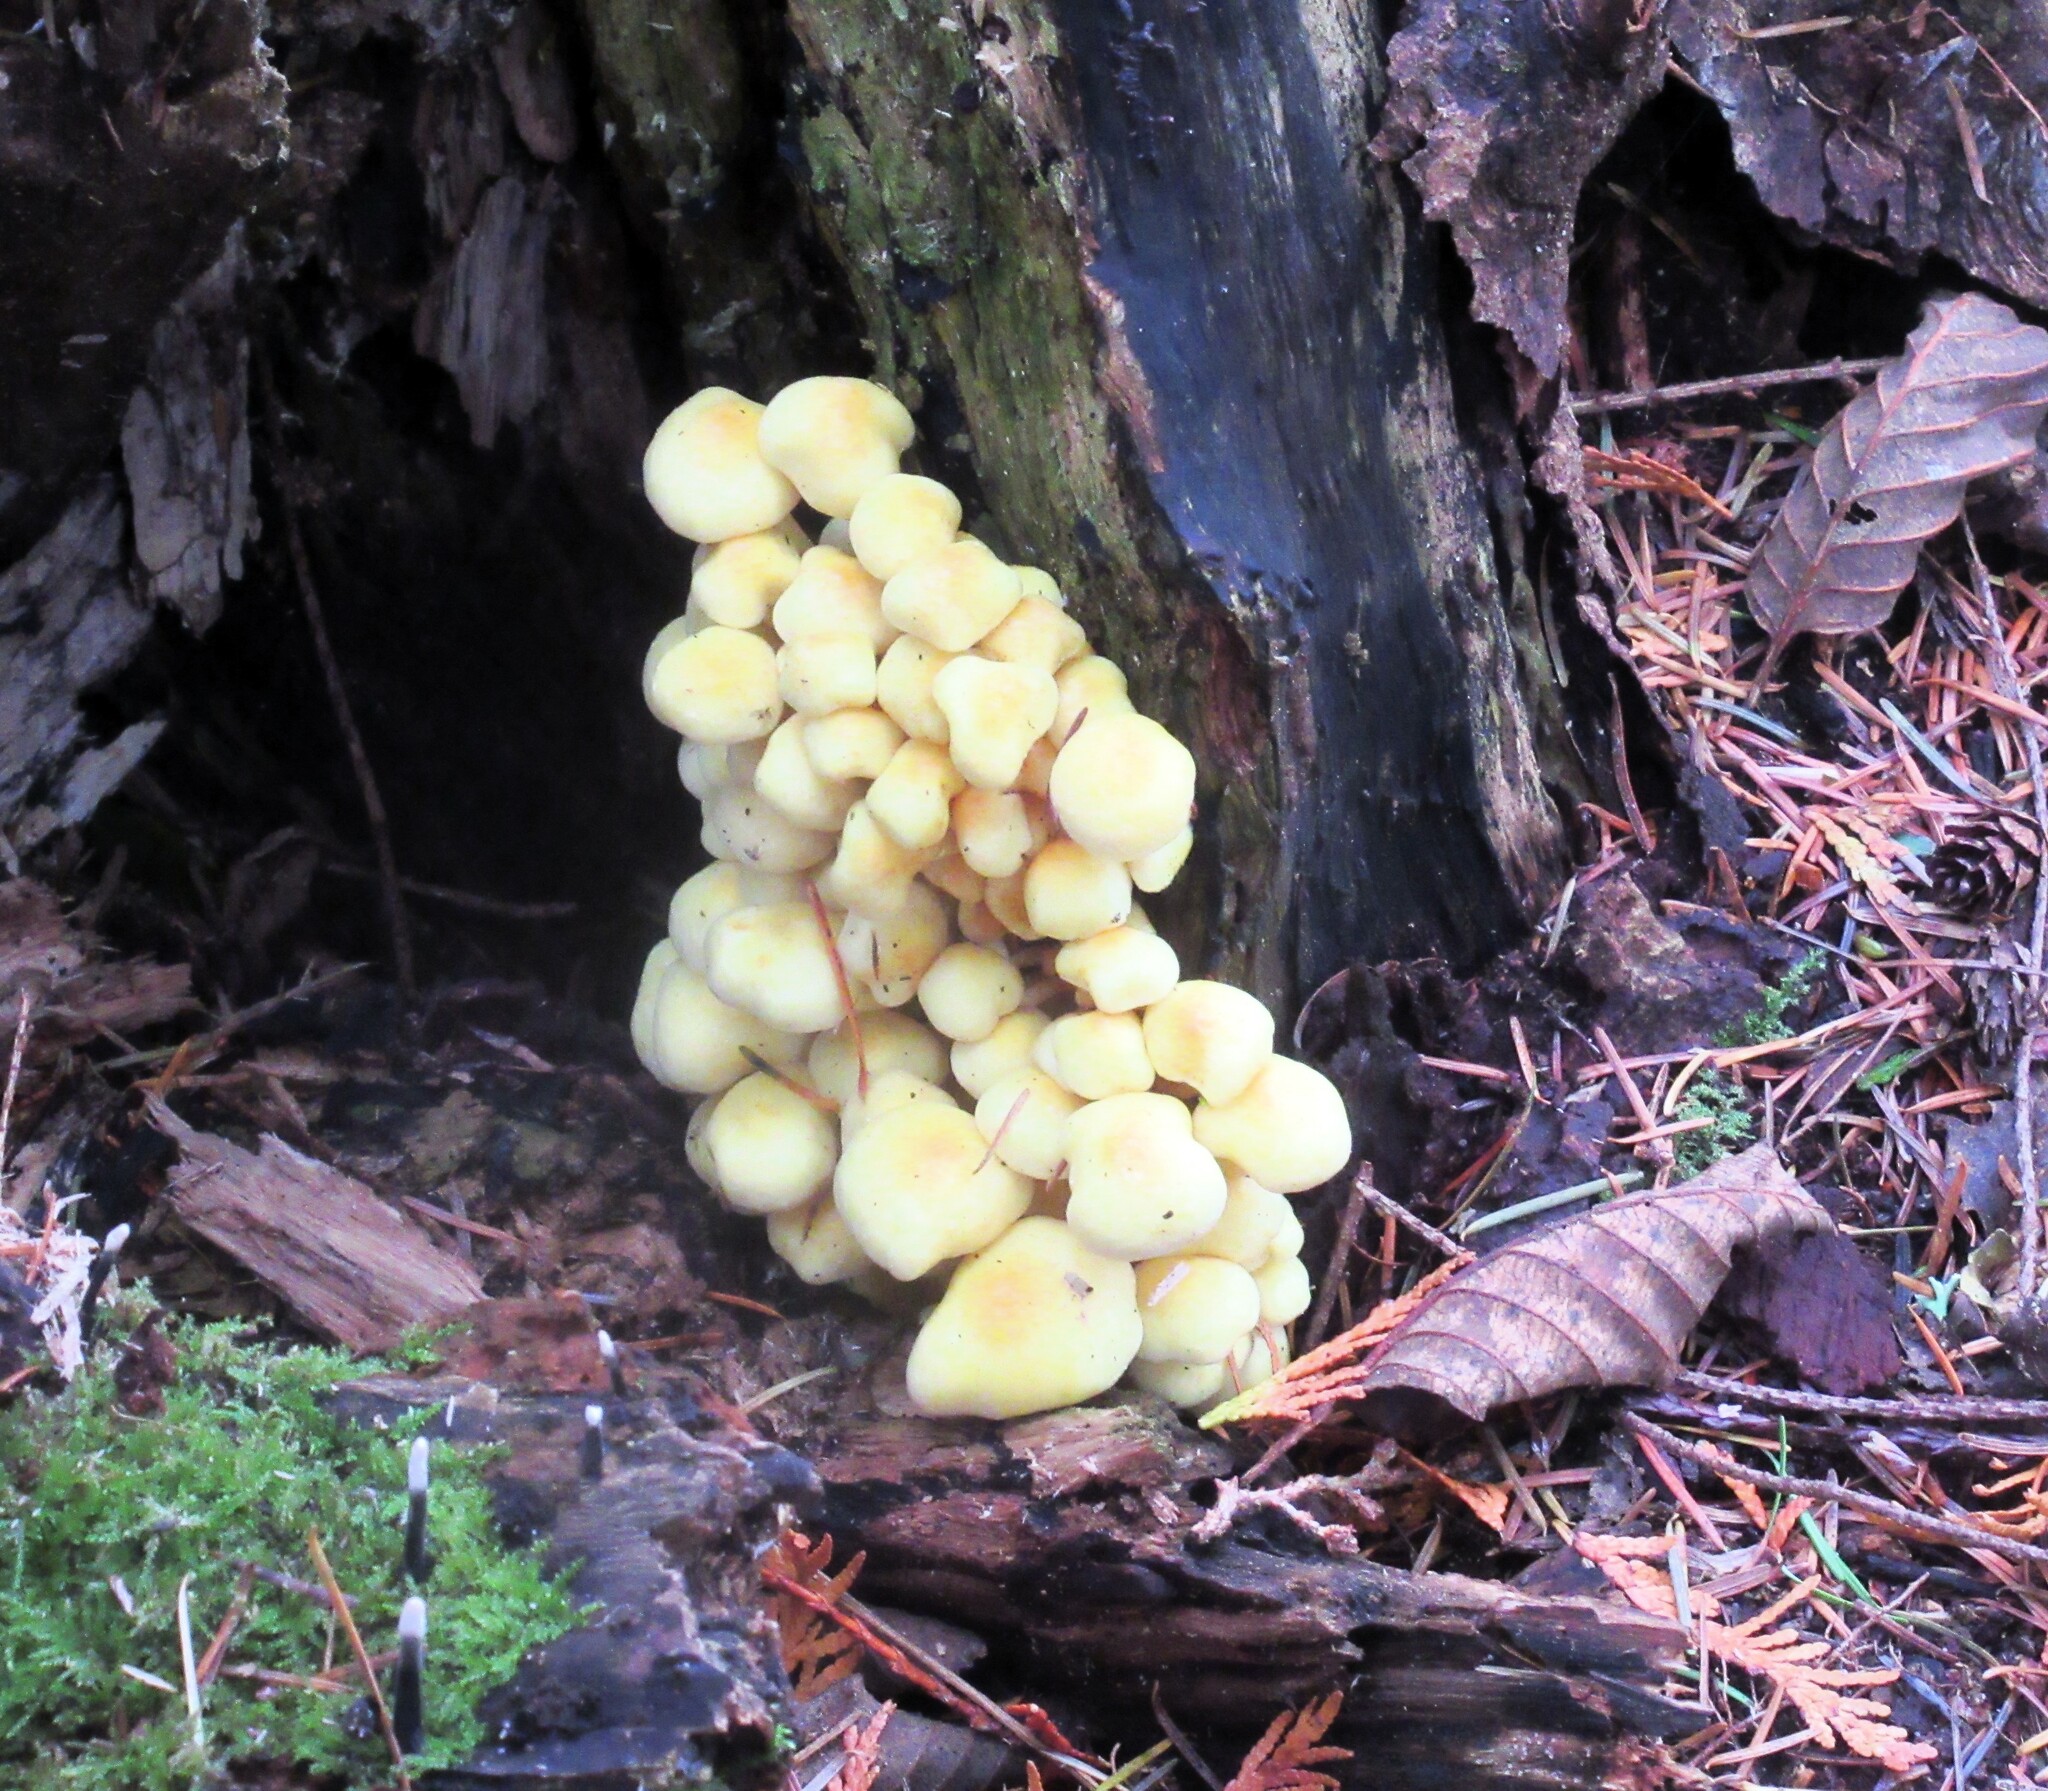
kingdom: Fungi
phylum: Basidiomycota
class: Agaricomycetes
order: Agaricales
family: Strophariaceae
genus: Hypholoma
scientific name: Hypholoma fasciculare
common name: Sulphur tuft
